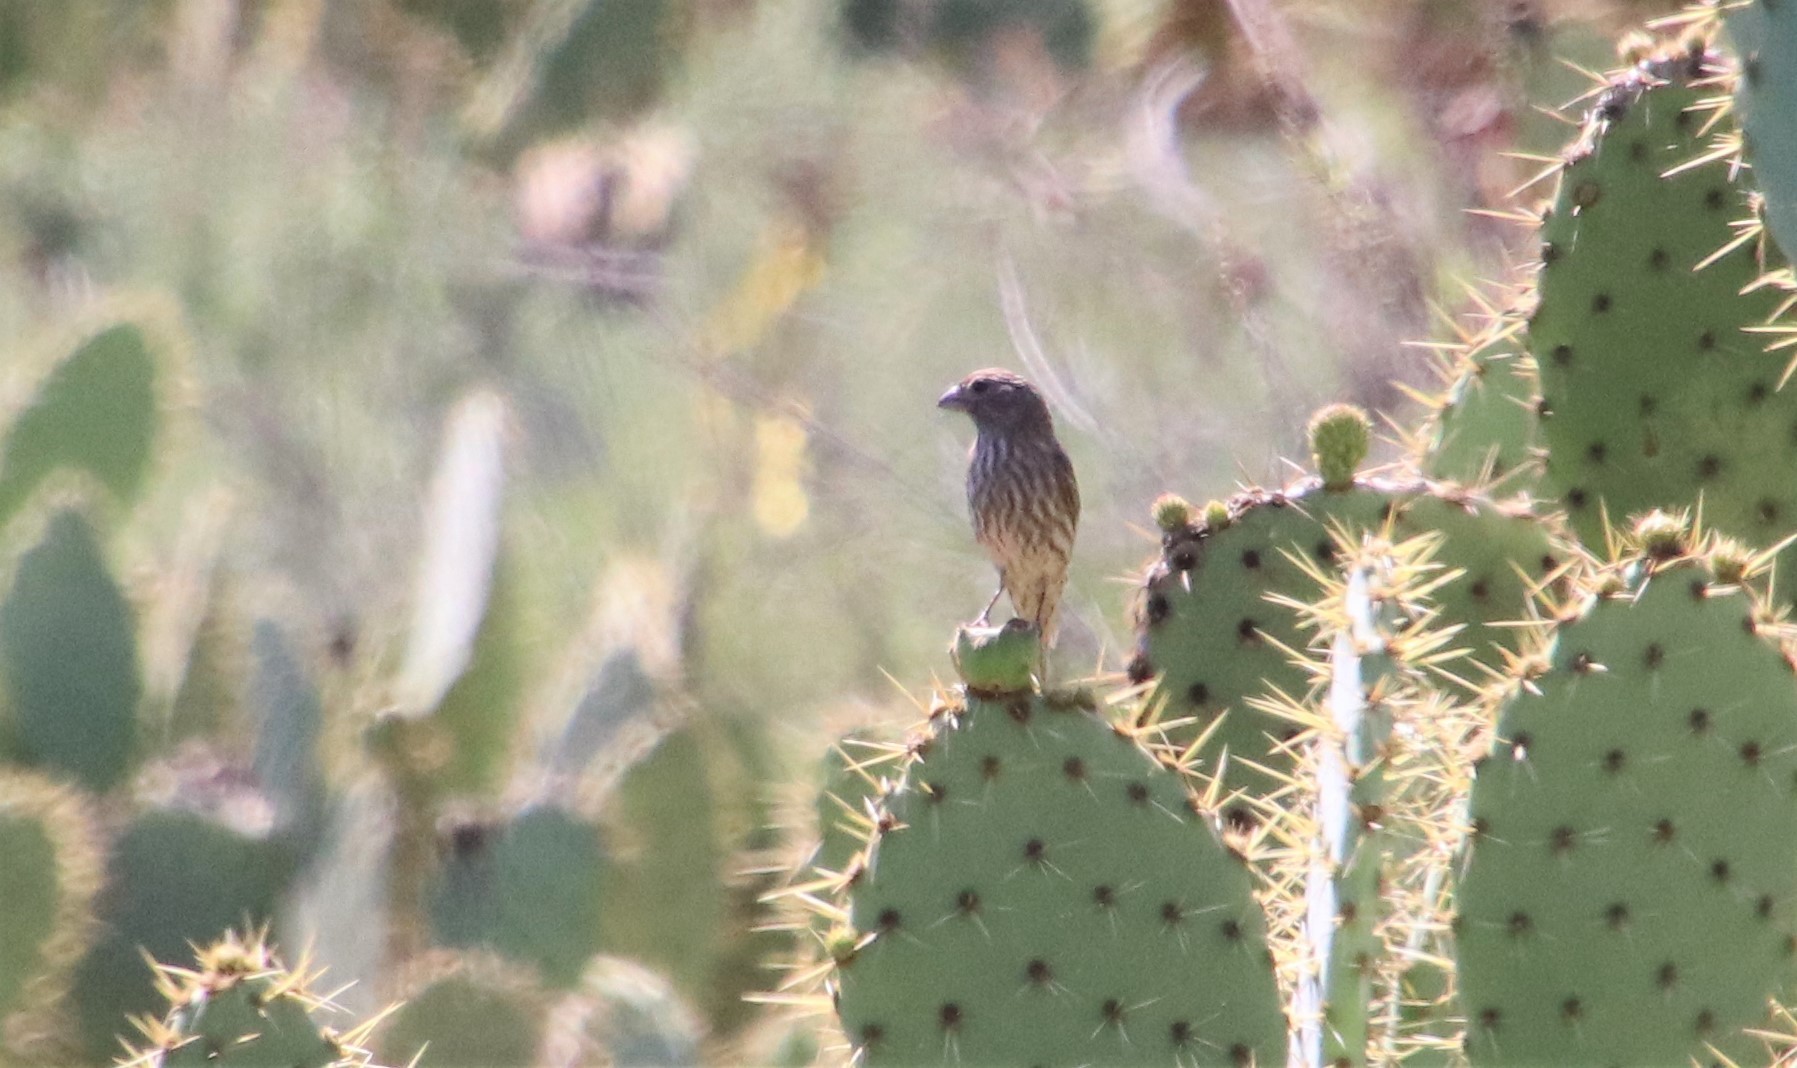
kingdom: Animalia
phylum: Chordata
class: Aves
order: Passeriformes
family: Fringillidae
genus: Haemorhous
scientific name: Haemorhous mexicanus
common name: House finch
